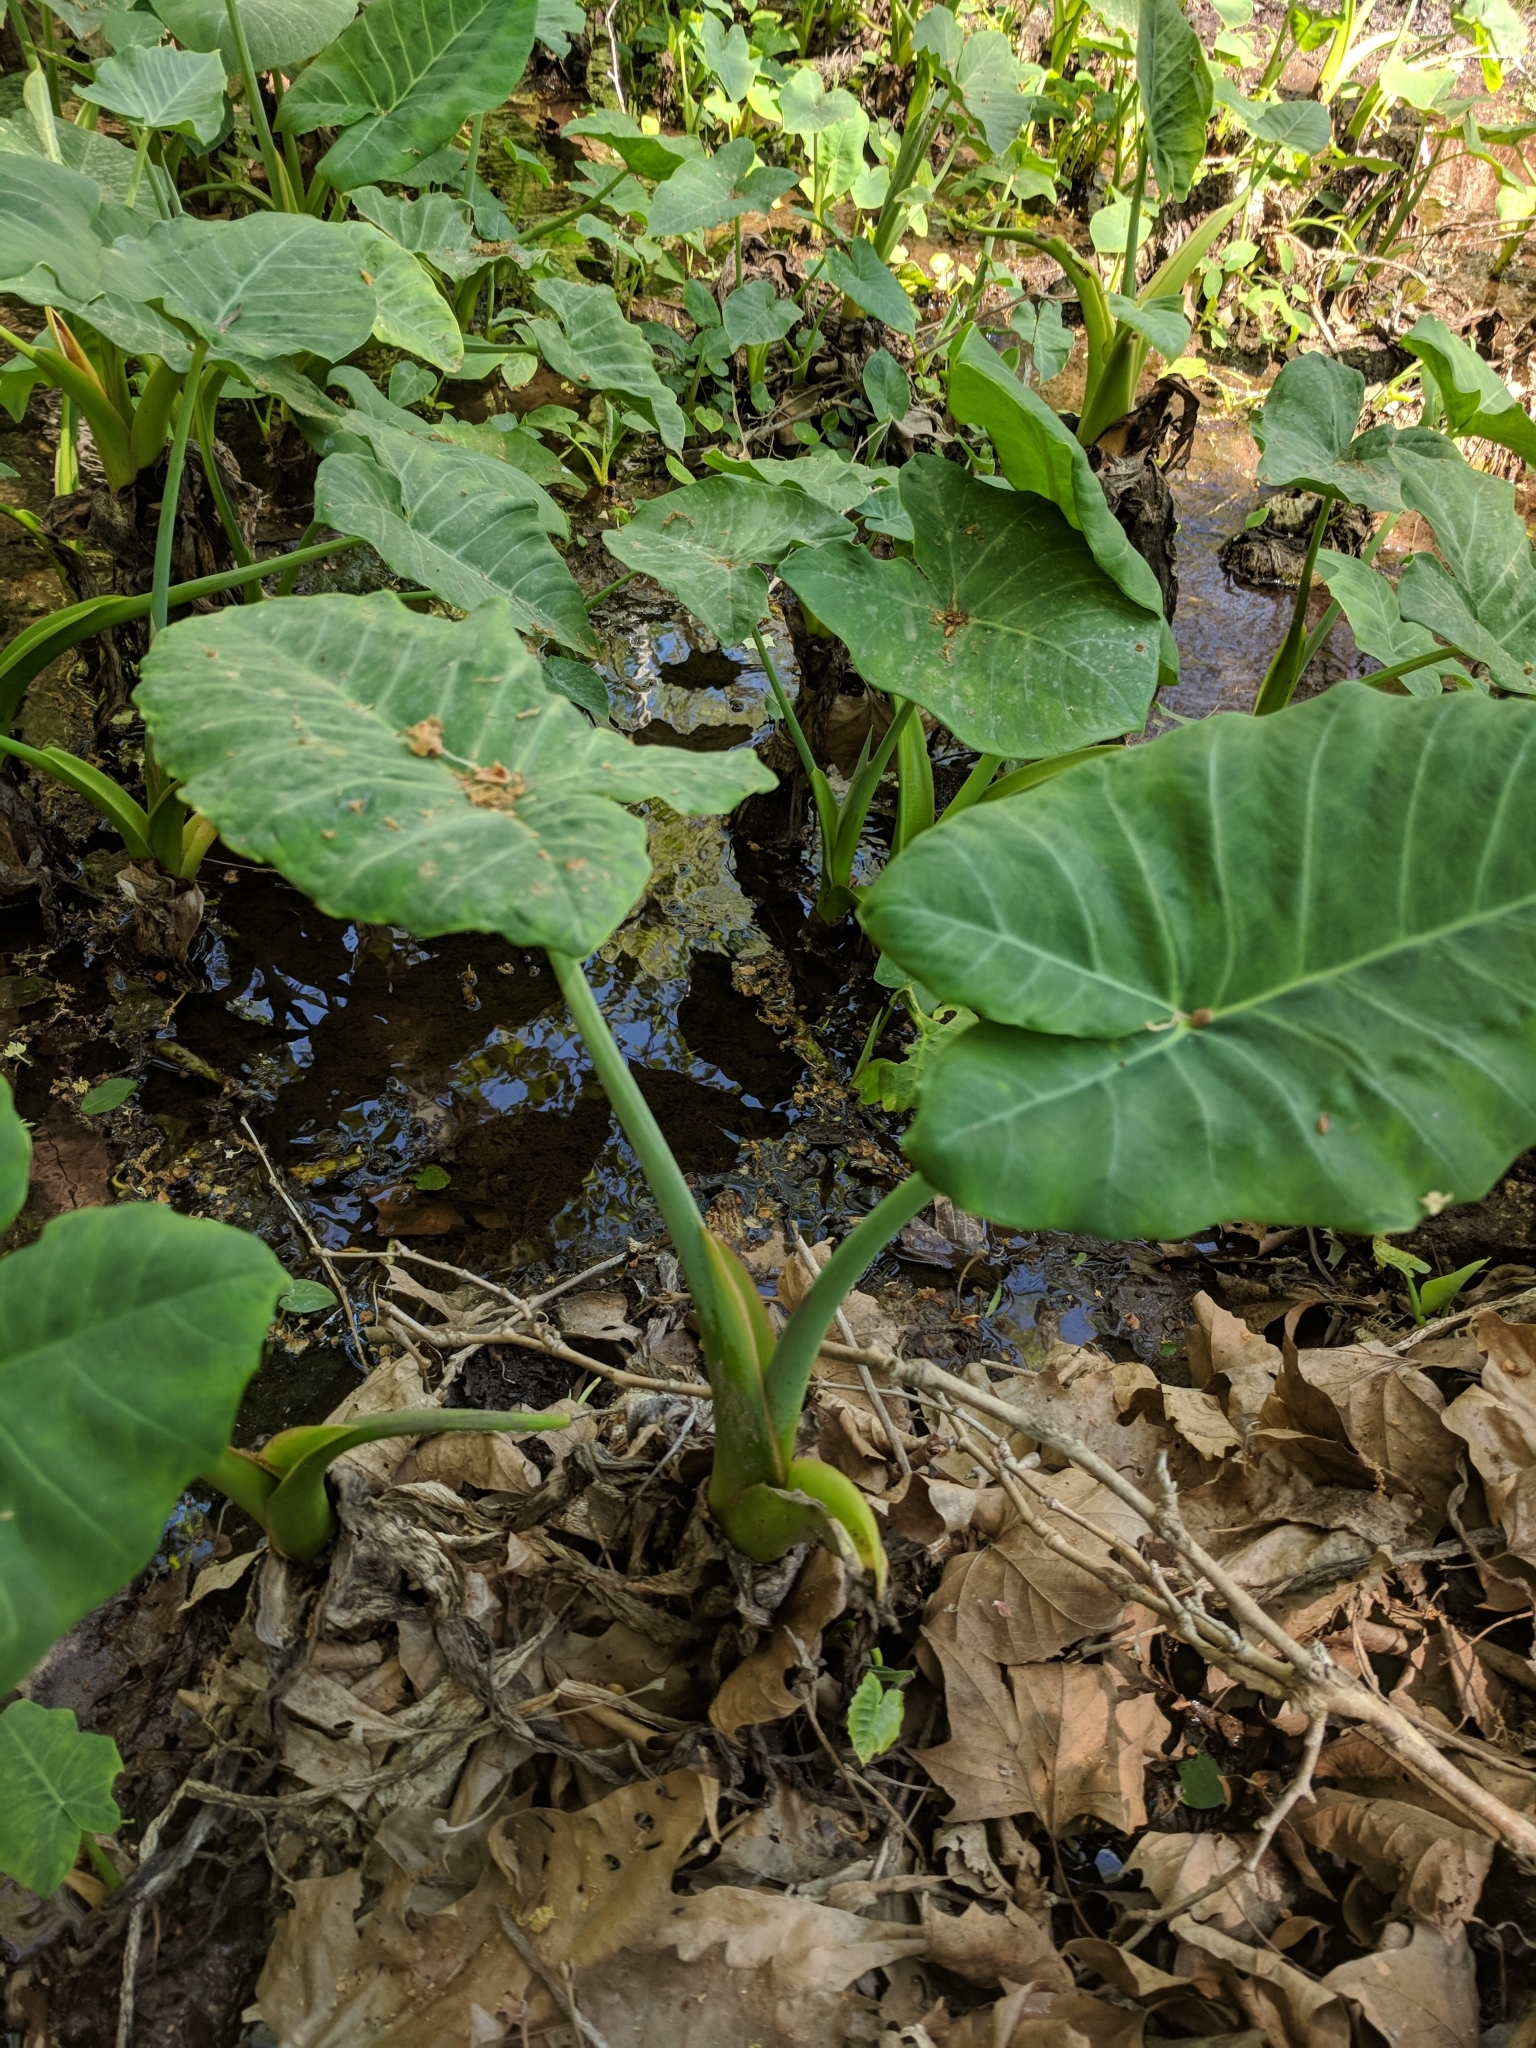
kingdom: Plantae
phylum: Tracheophyta
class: Liliopsida
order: Alismatales
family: Araceae
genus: Xanthosoma
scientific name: Xanthosoma sagittifolium
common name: Arrowleaf elephant's ear
